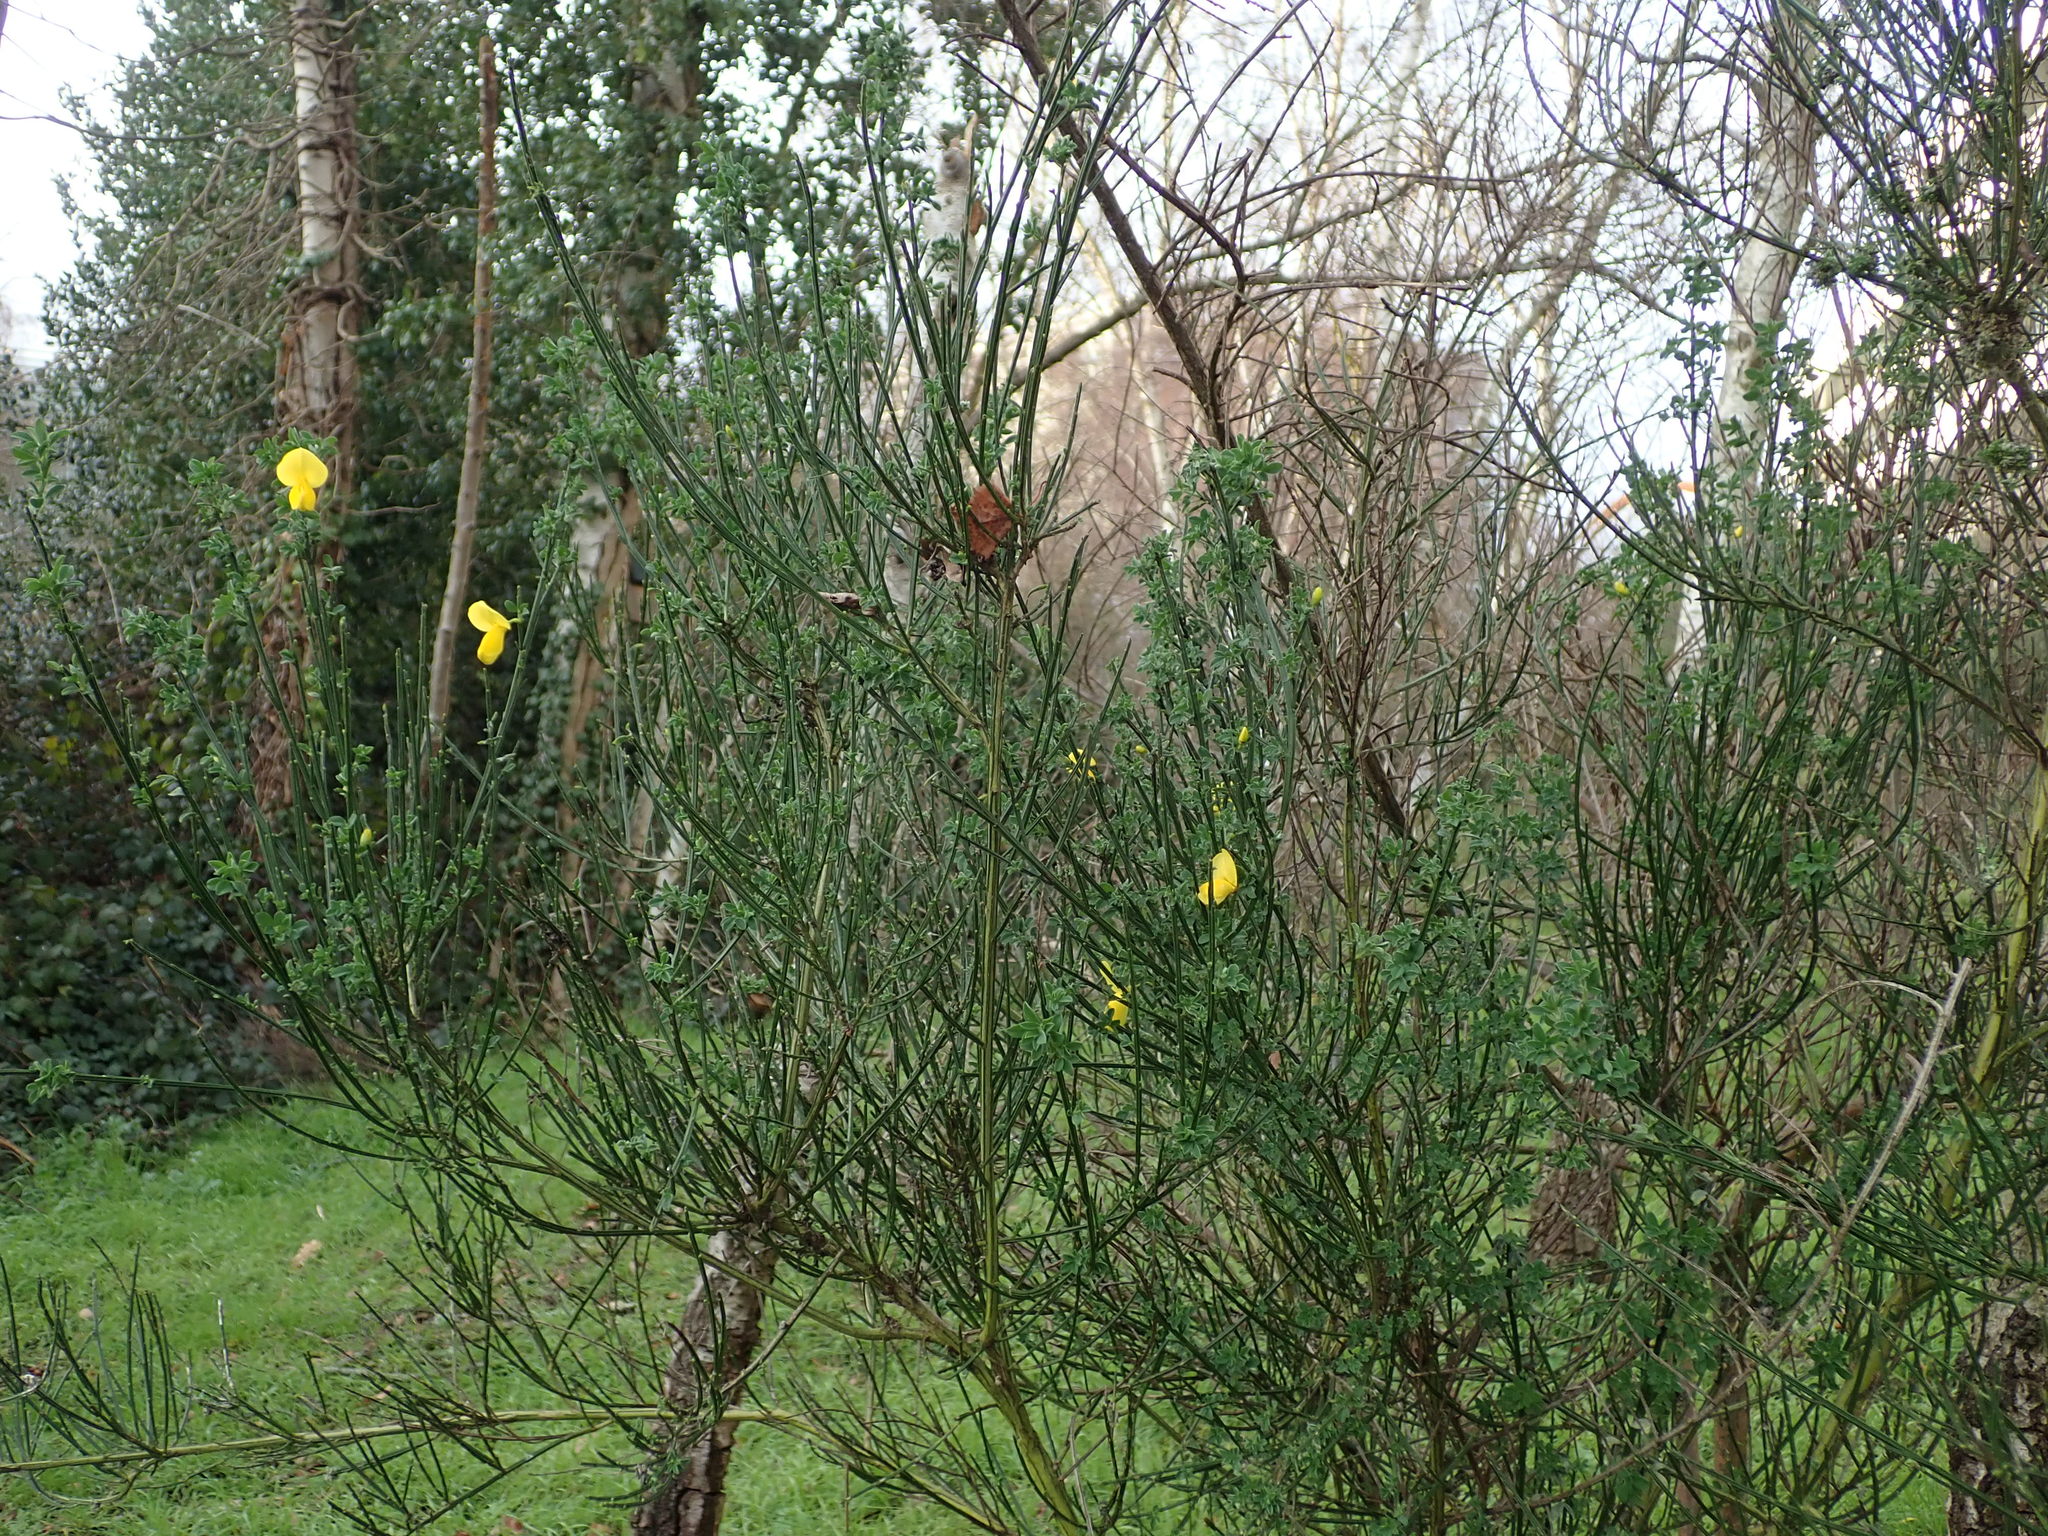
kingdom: Plantae
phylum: Tracheophyta
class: Magnoliopsida
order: Fabales
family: Fabaceae
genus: Cytisus
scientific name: Cytisus scoparius
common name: Scotch broom
